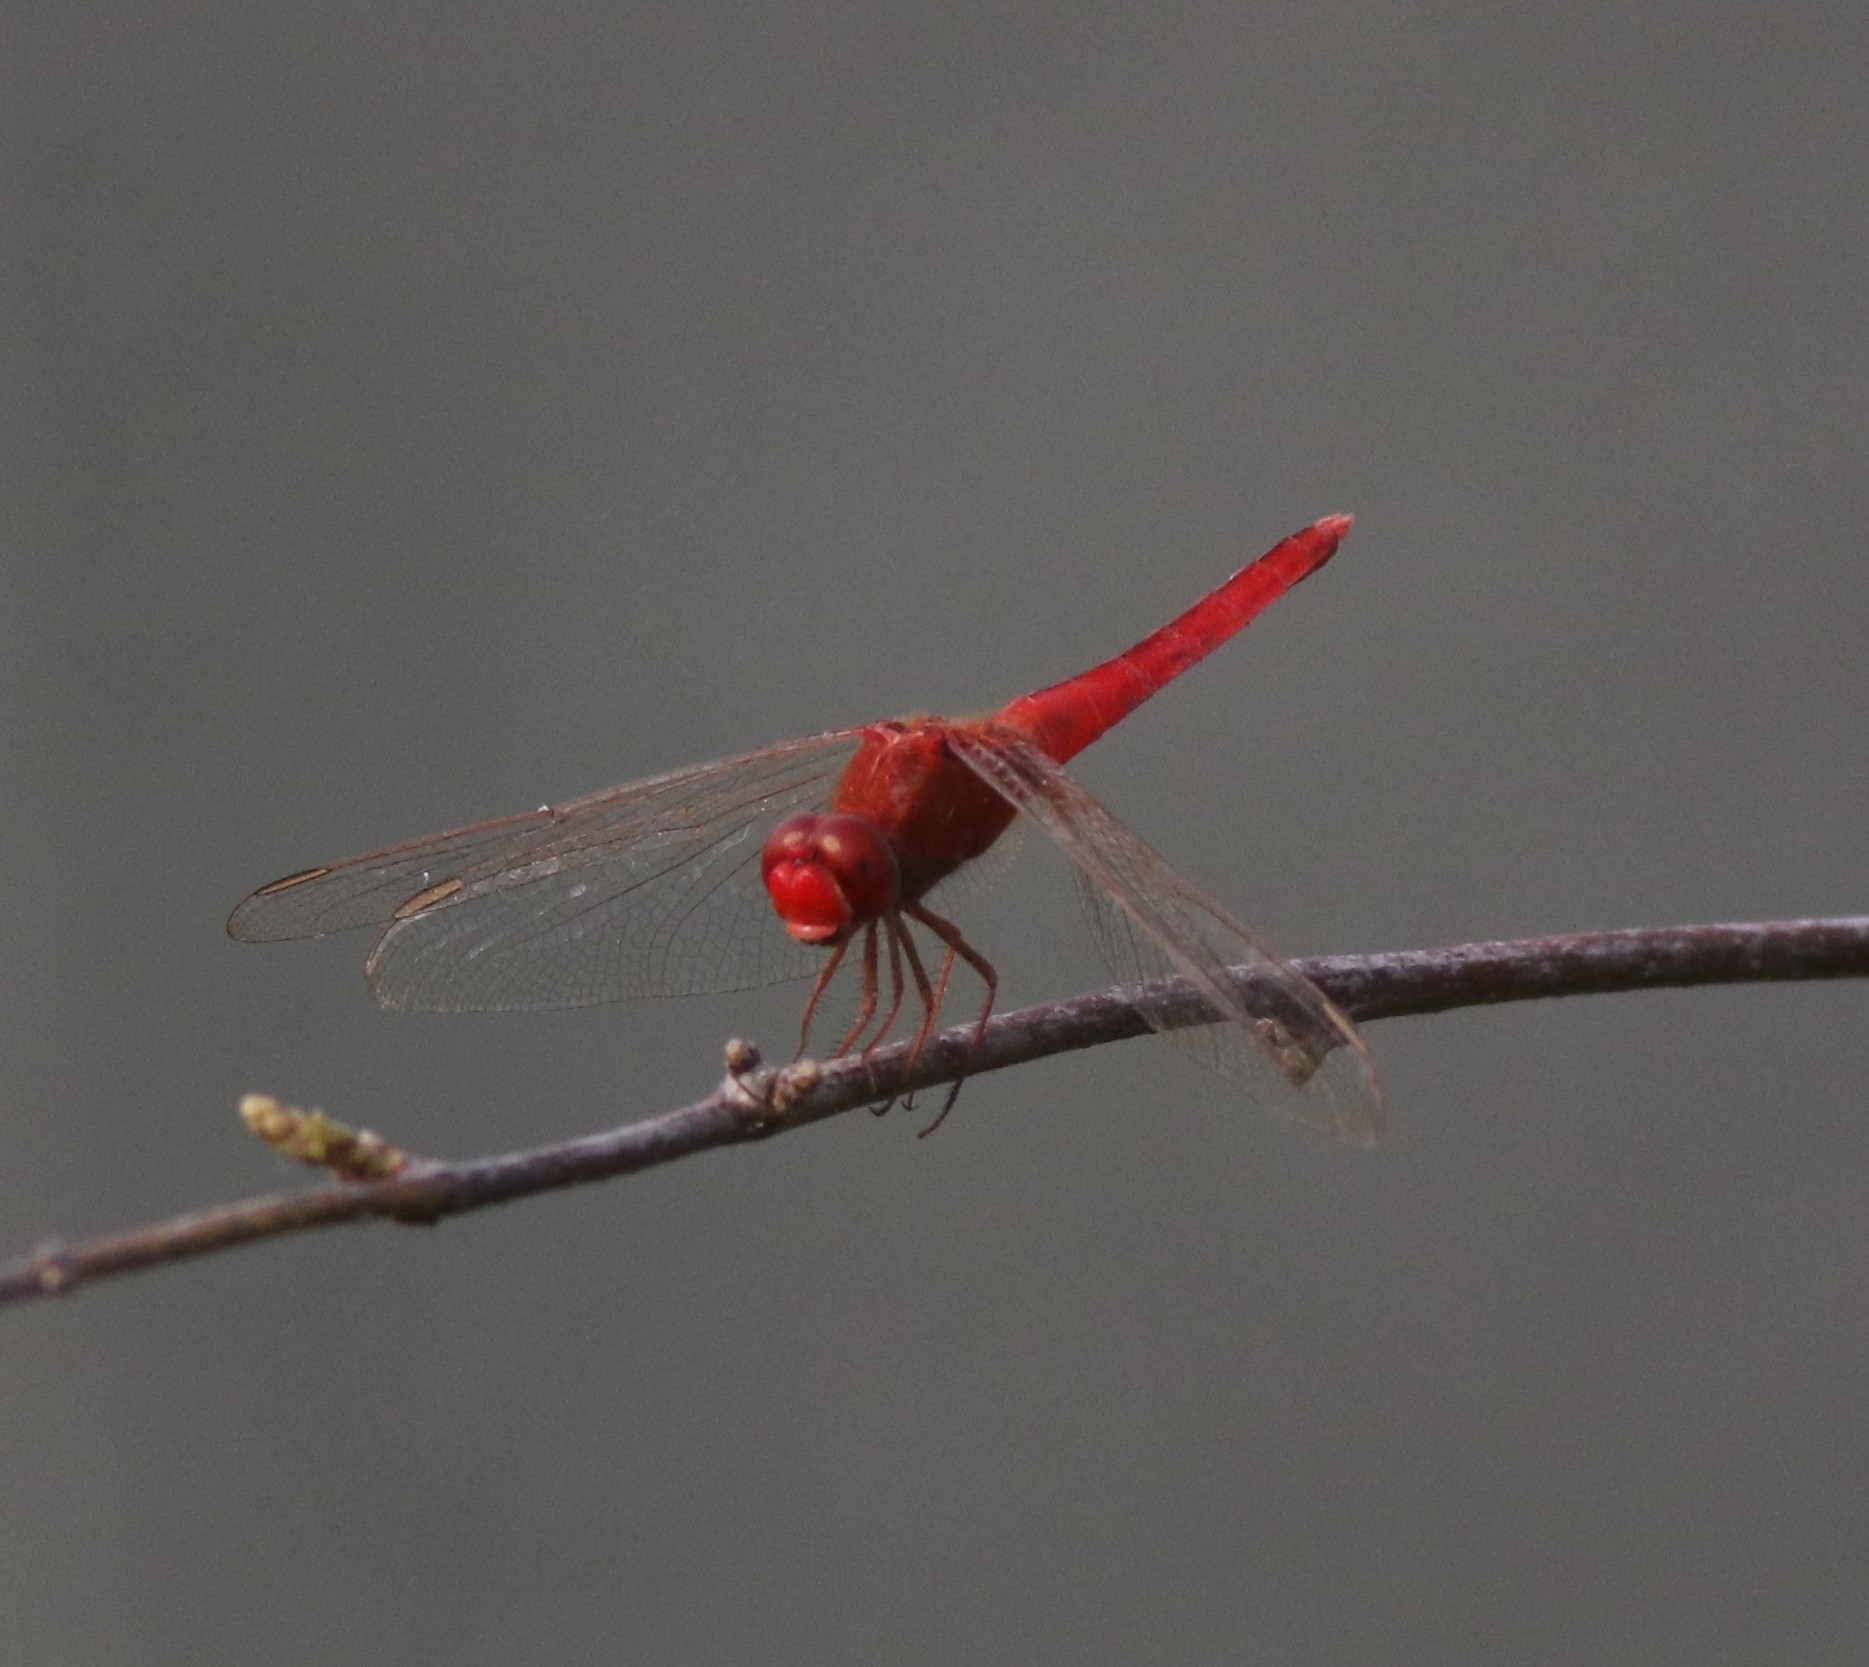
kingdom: Animalia
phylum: Arthropoda
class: Insecta
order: Odonata
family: Libellulidae
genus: Crocothemis
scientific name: Crocothemis servilia
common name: Scarlet skimmer
